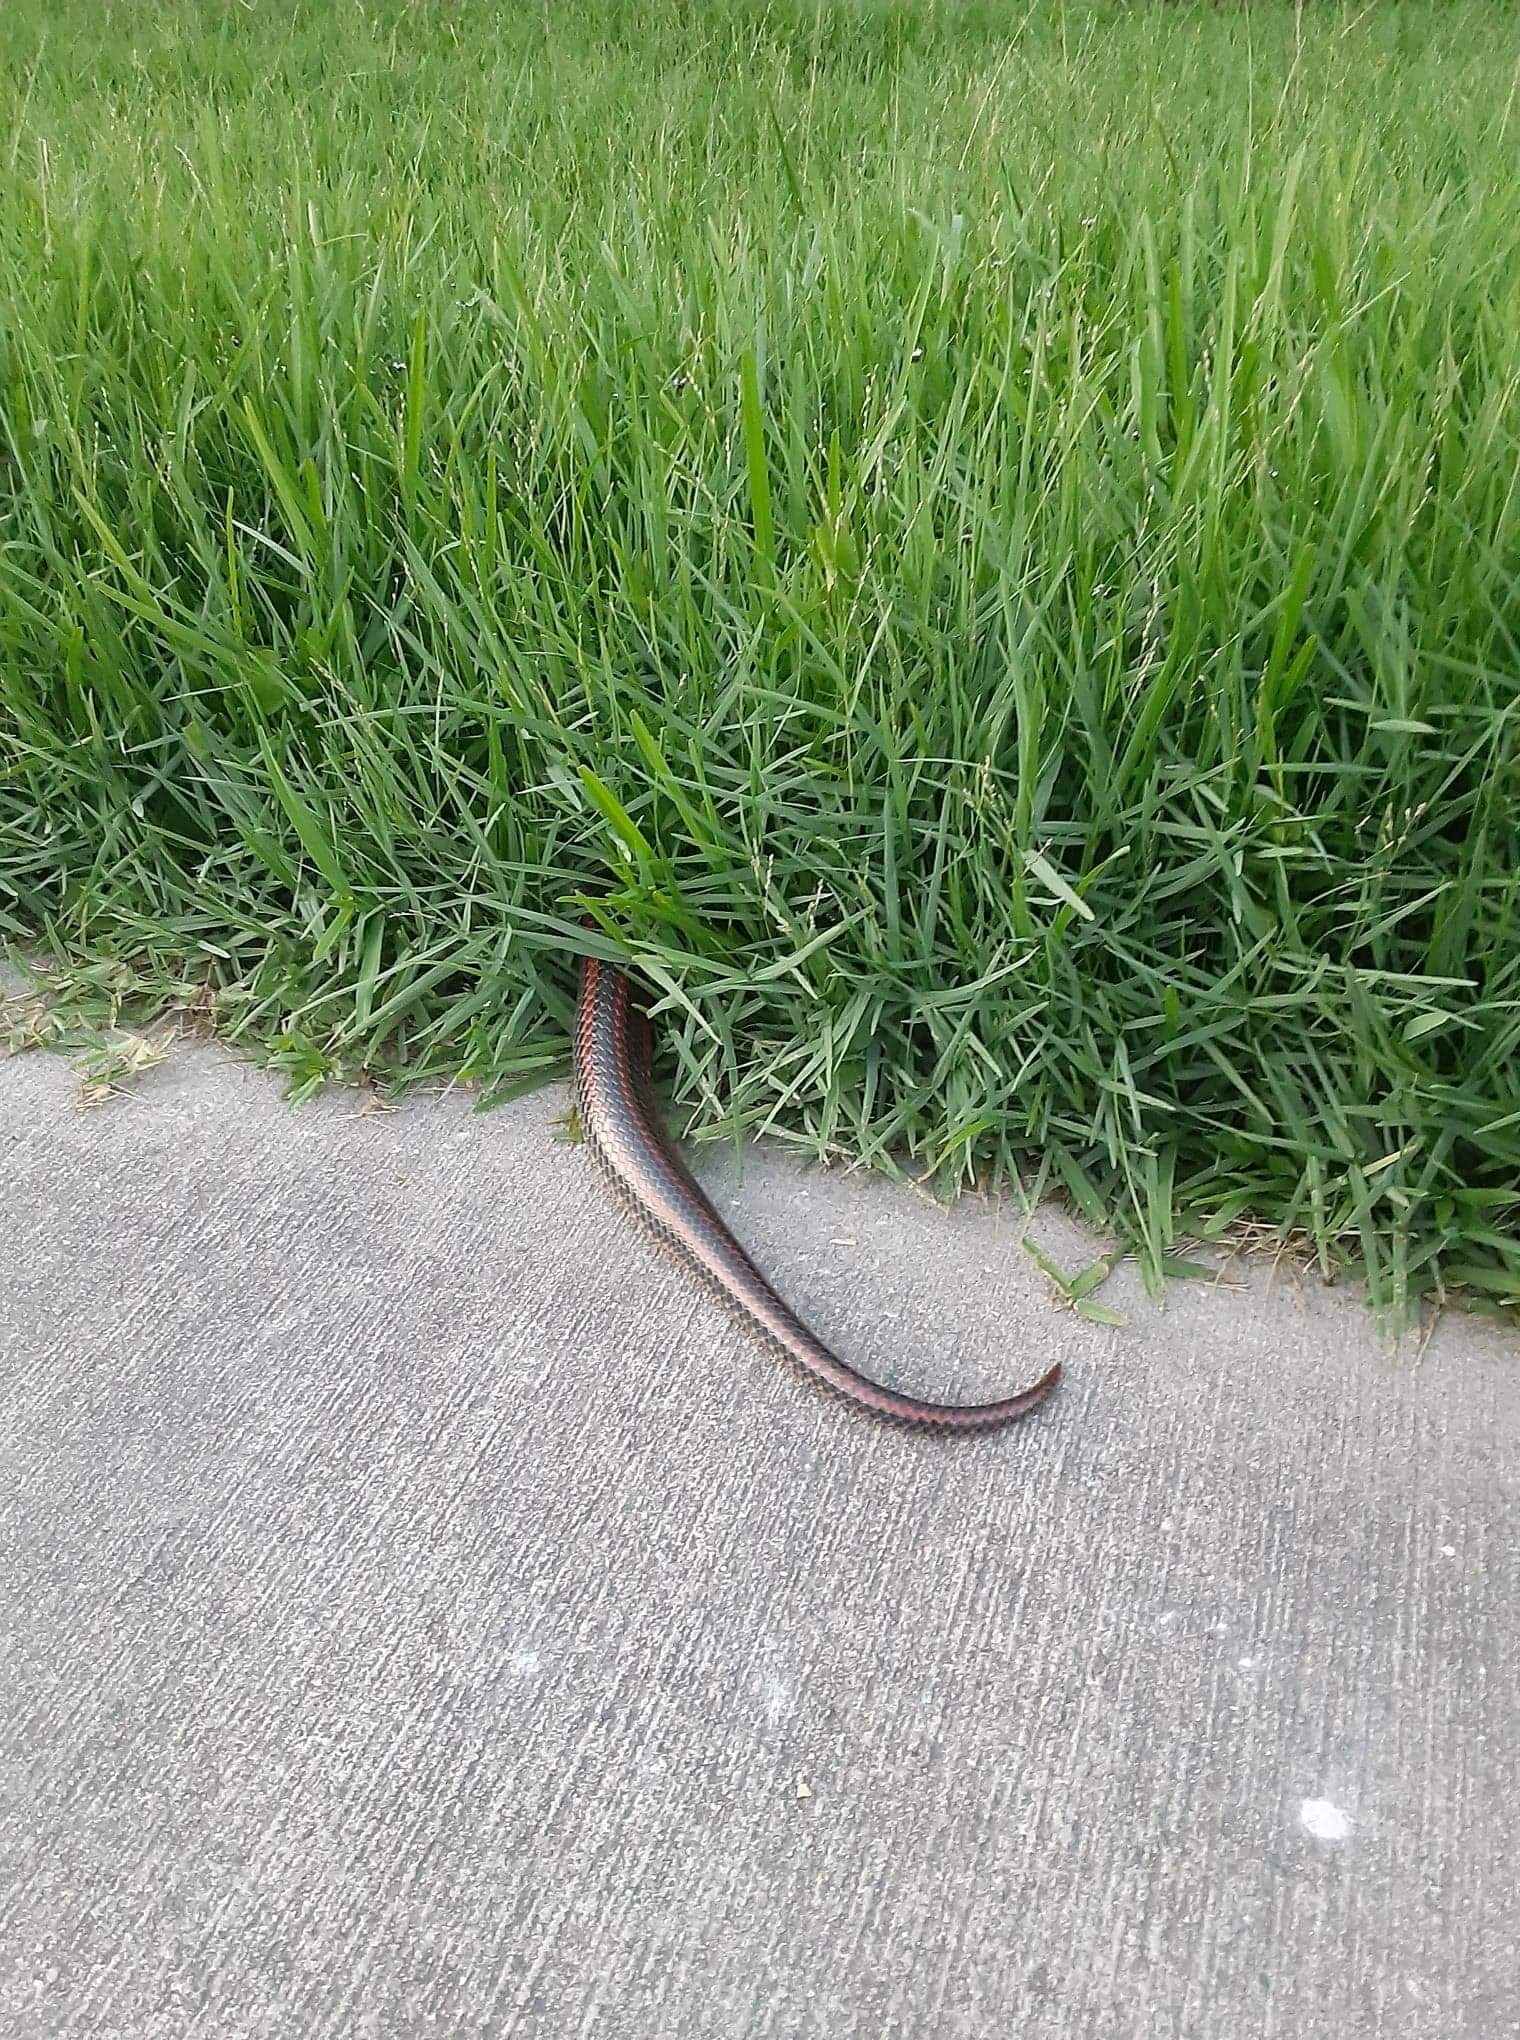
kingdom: Animalia
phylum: Chordata
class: Squamata
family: Colubridae
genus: Farancia
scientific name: Farancia erytrogramma
